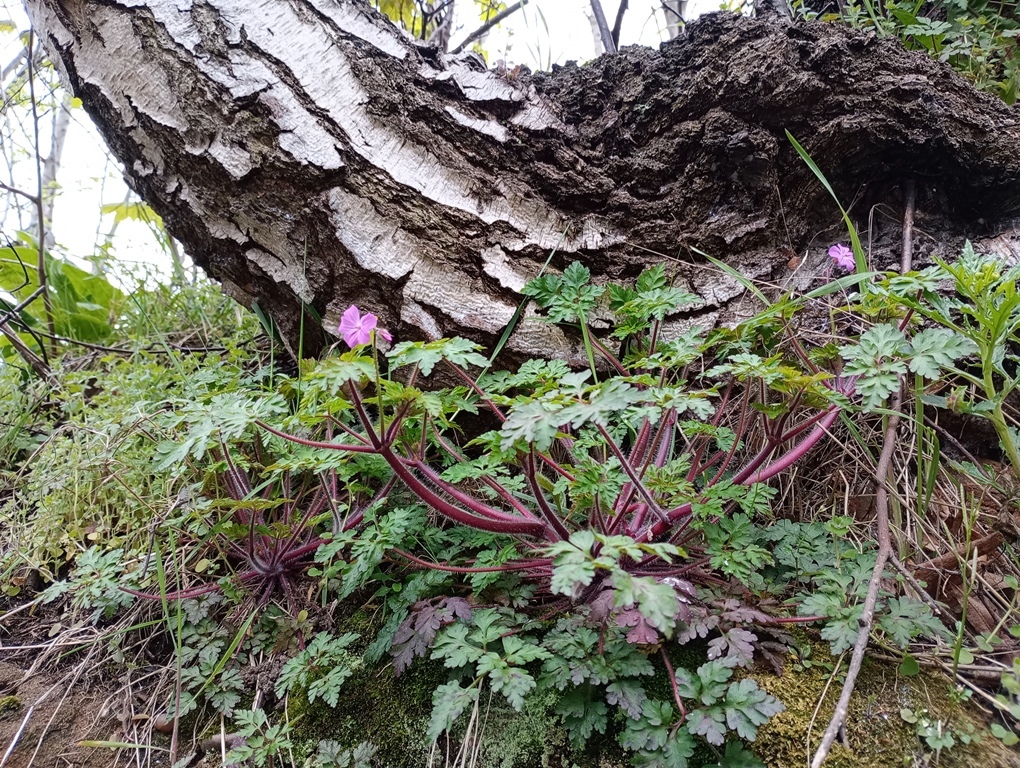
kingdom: Plantae
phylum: Tracheophyta
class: Magnoliopsida
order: Geraniales
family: Geraniaceae
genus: Geranium
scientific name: Geranium robertianum
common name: Herb-robert
